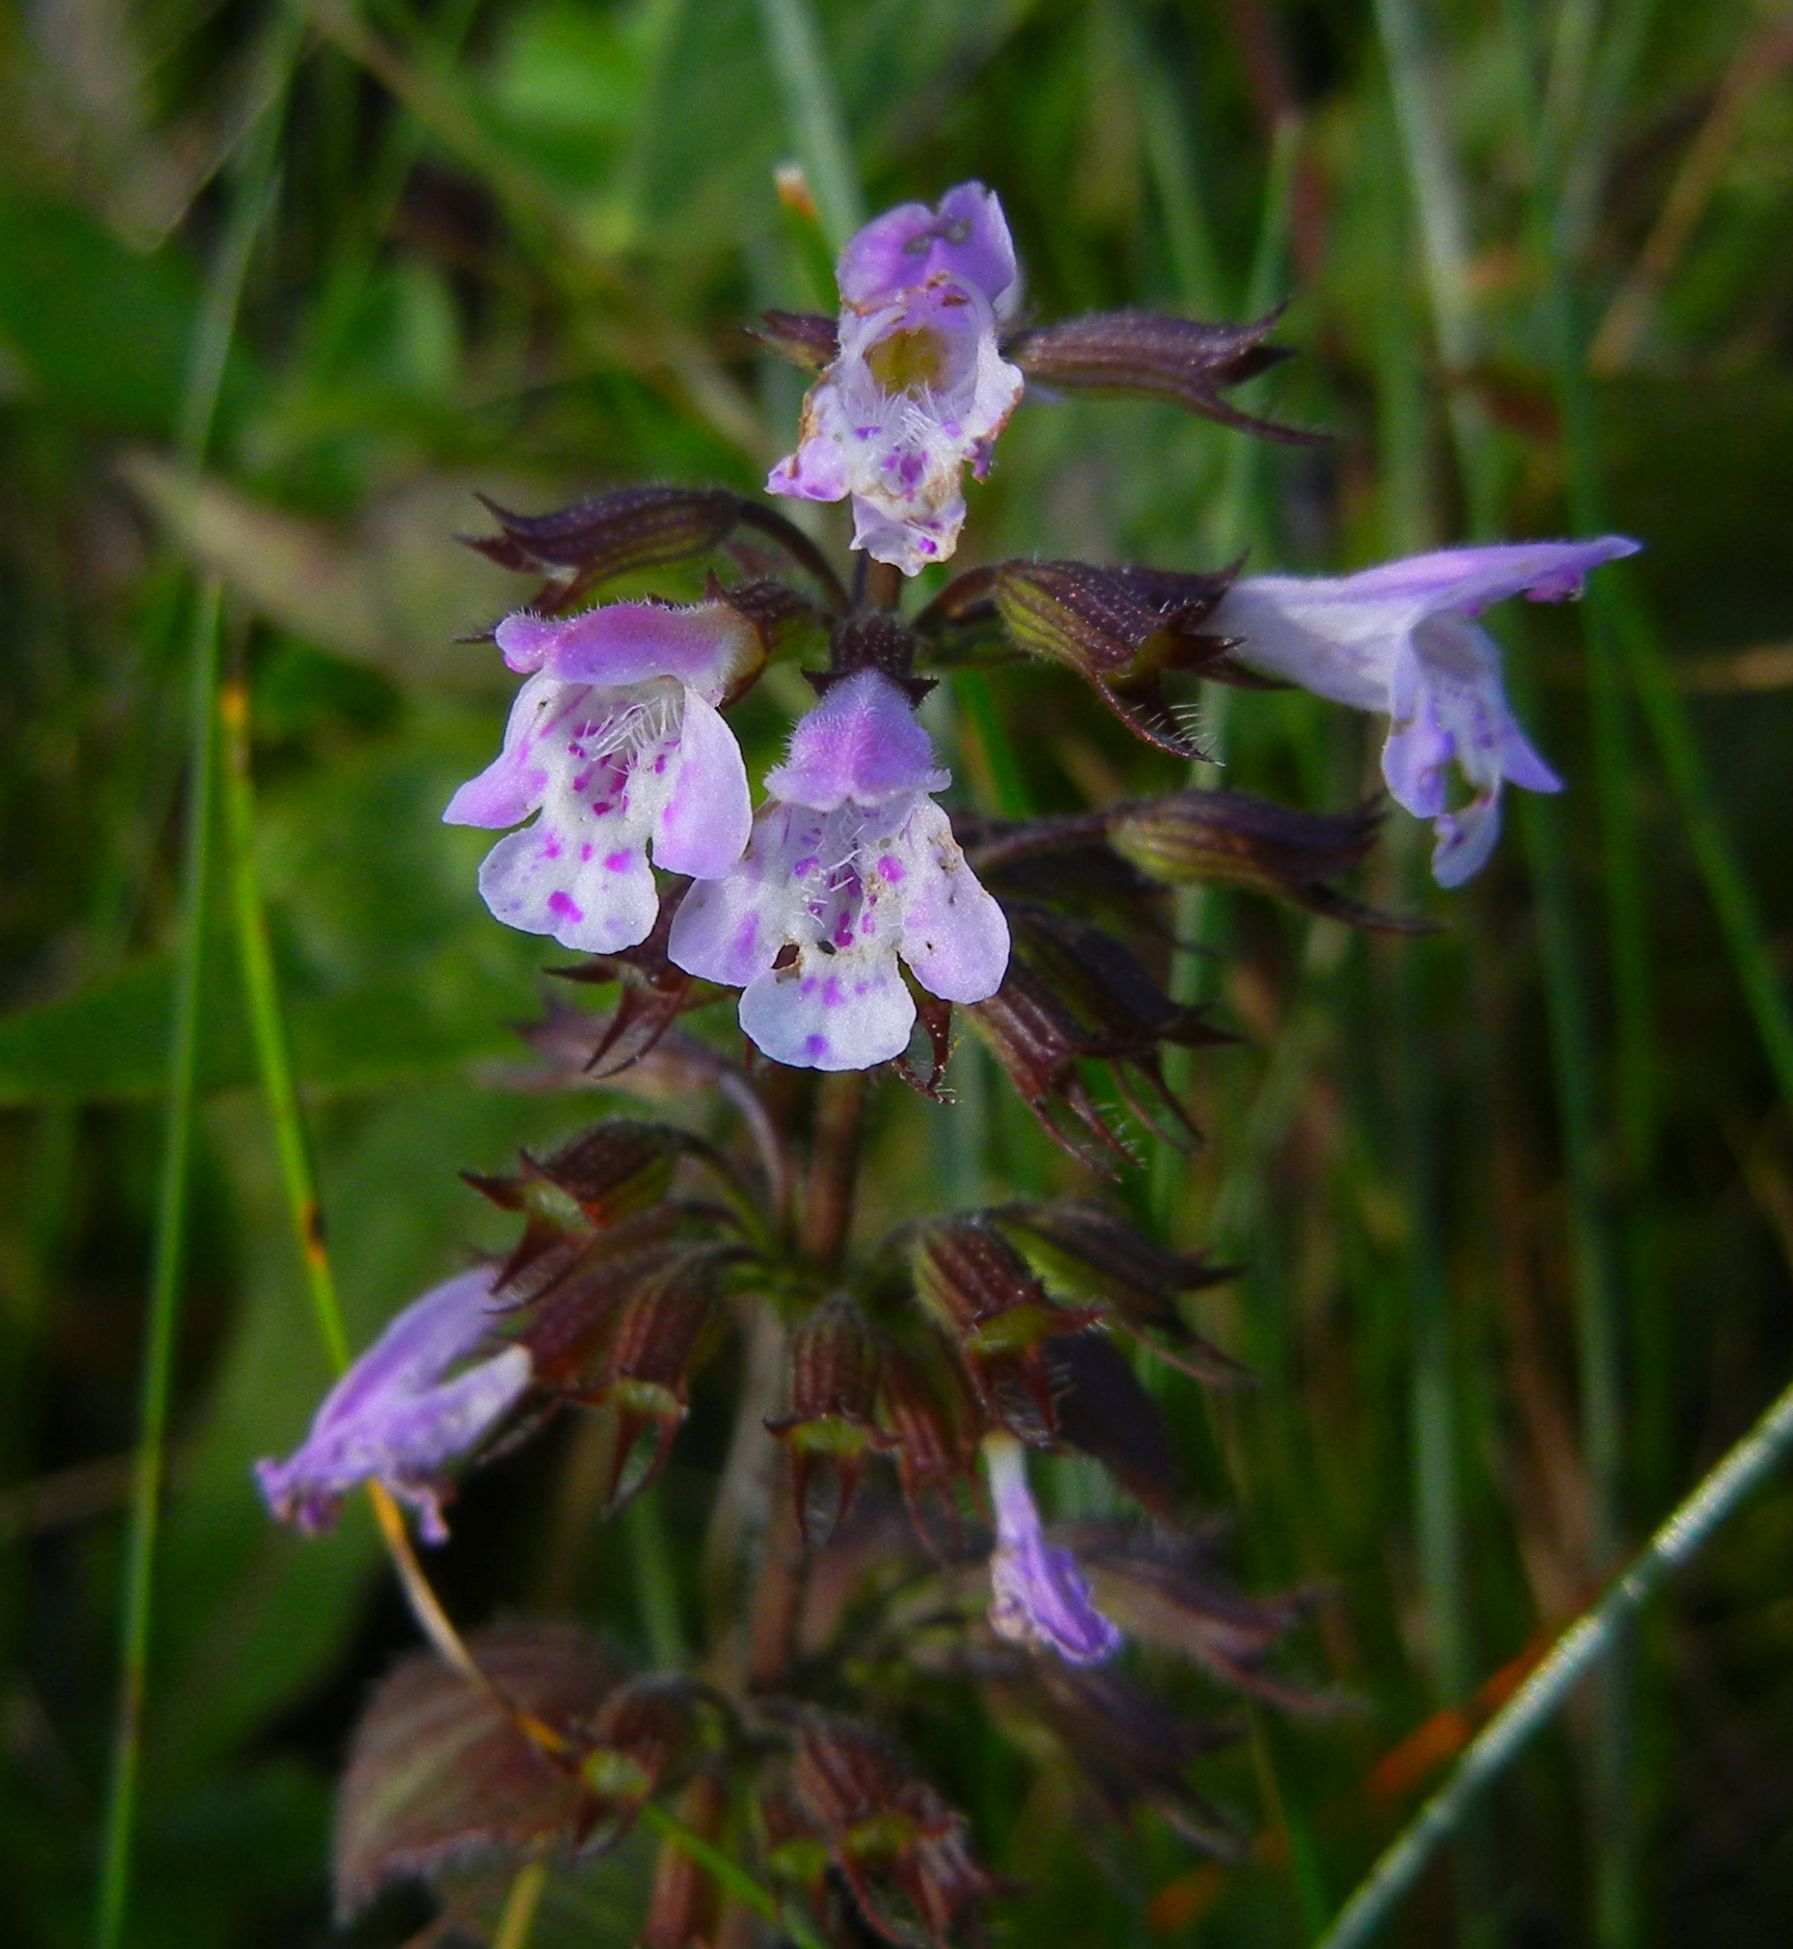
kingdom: Plantae
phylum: Tracheophyta
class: Magnoliopsida
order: Lamiales
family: Lamiaceae
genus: Clinopodium
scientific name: Clinopodium menthifolium
